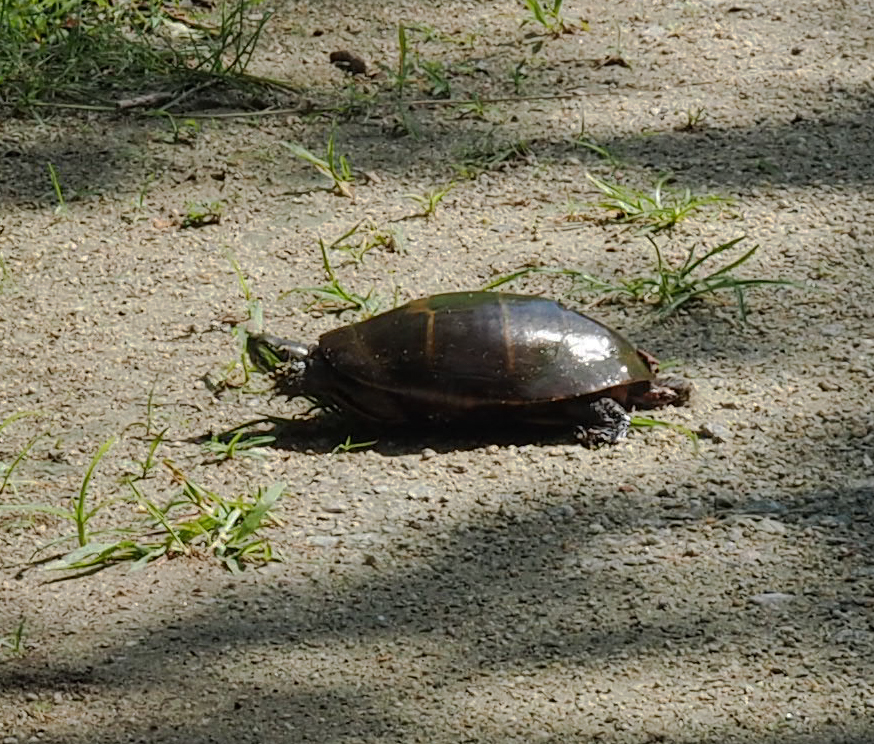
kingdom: Animalia
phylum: Chordata
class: Testudines
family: Emydidae
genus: Chrysemys
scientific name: Chrysemys picta
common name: Painted turtle
